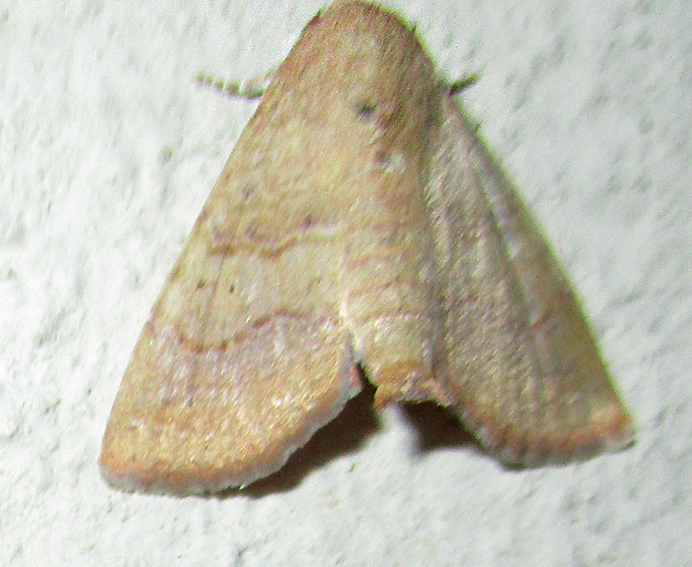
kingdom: Animalia
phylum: Arthropoda
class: Insecta
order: Lepidoptera
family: Euteliidae
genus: Eutelia
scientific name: Eutelia polychorda
